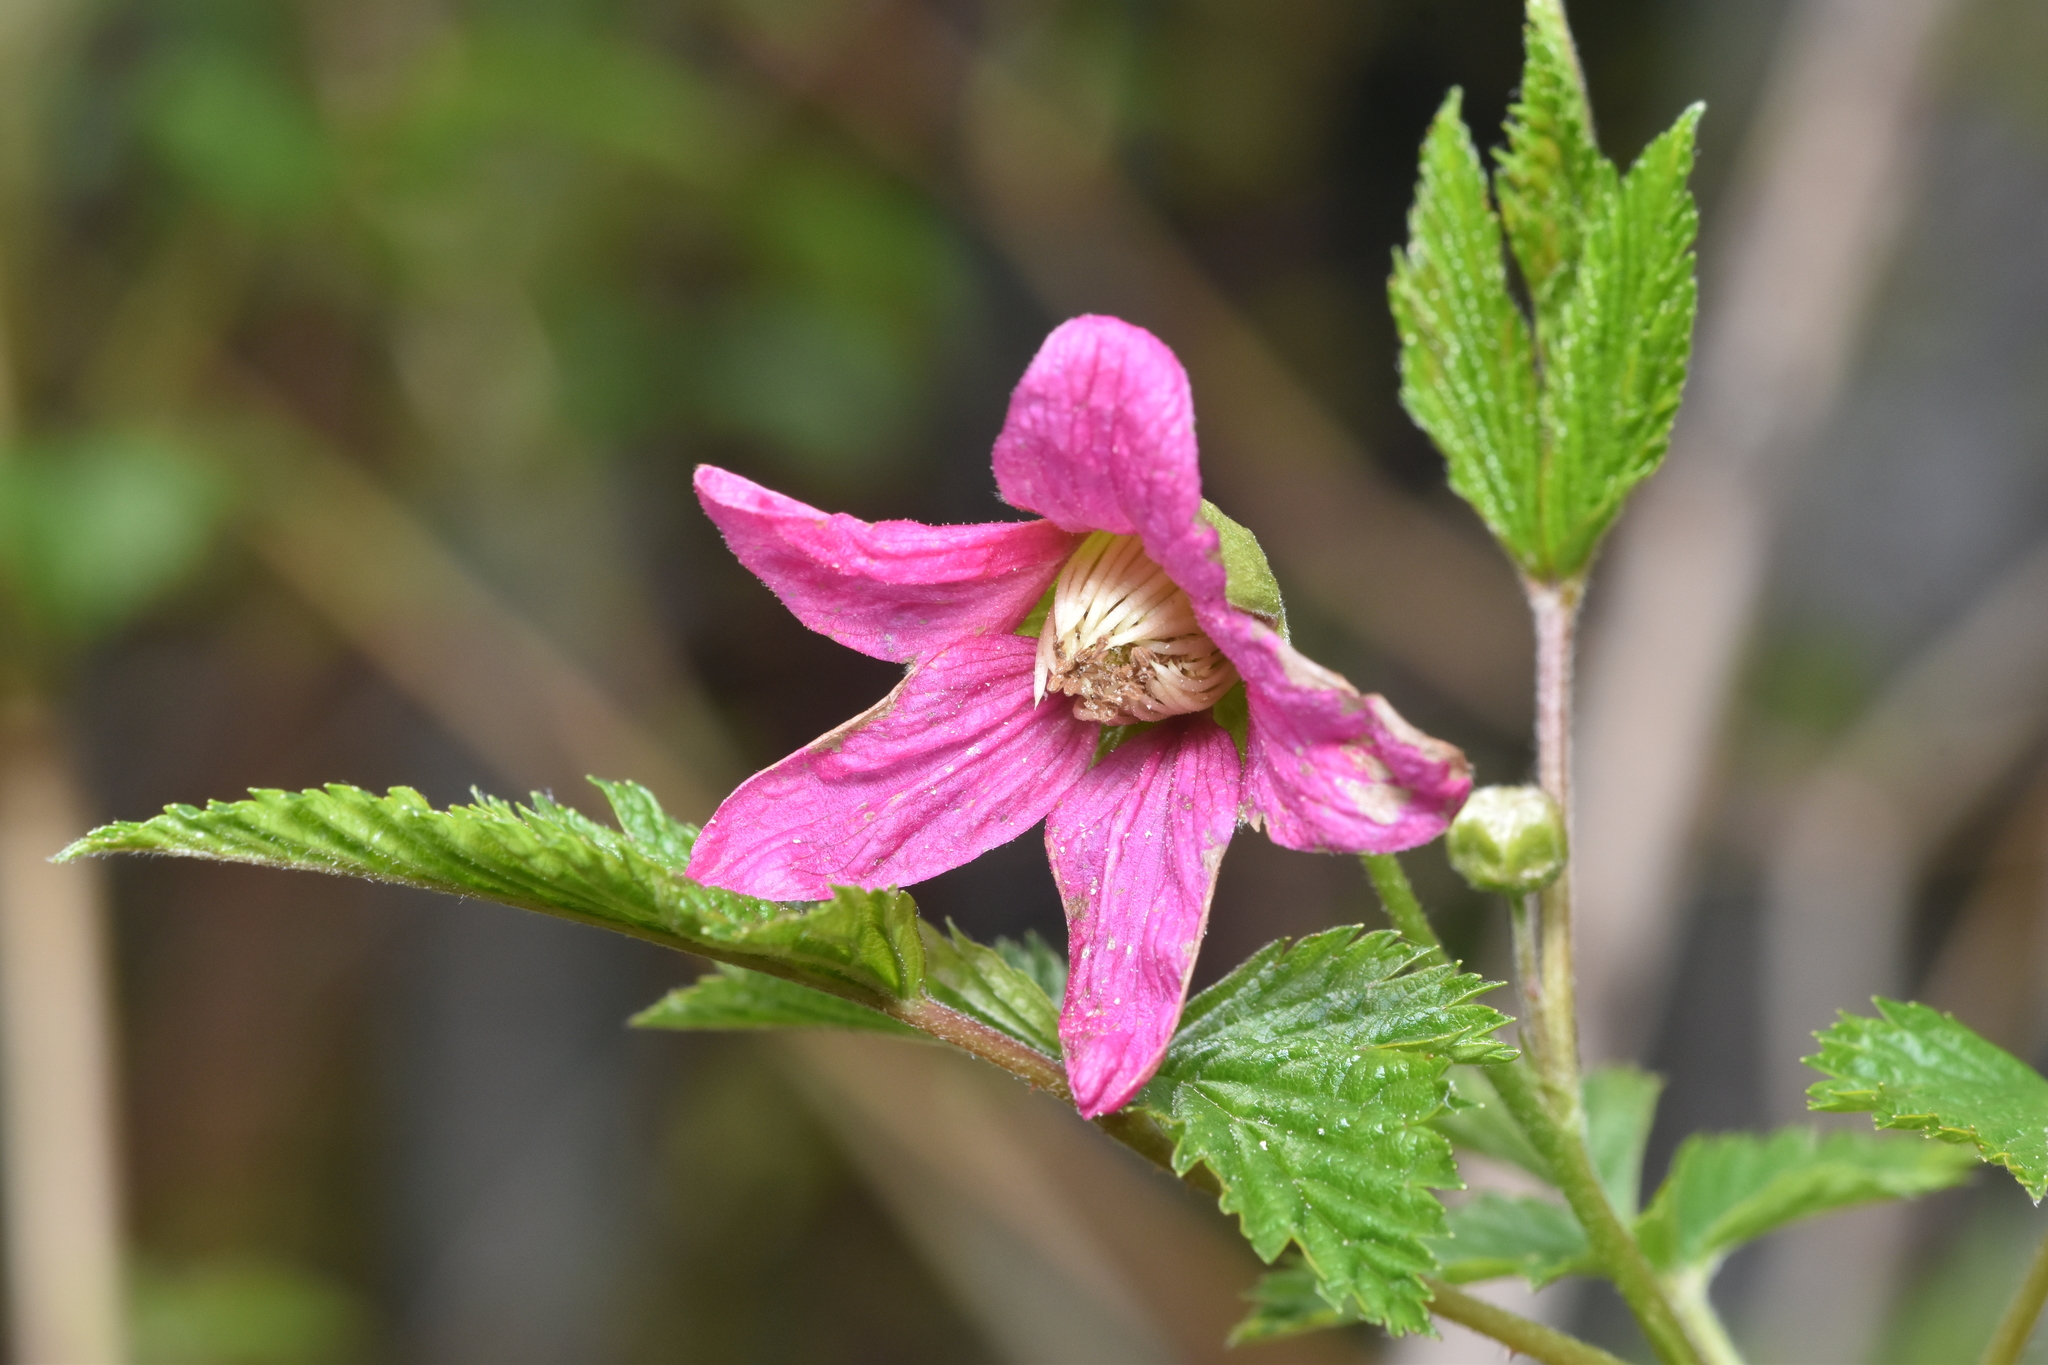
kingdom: Plantae
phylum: Tracheophyta
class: Magnoliopsida
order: Rosales
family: Rosaceae
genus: Rubus
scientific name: Rubus spectabilis
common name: Salmonberry
